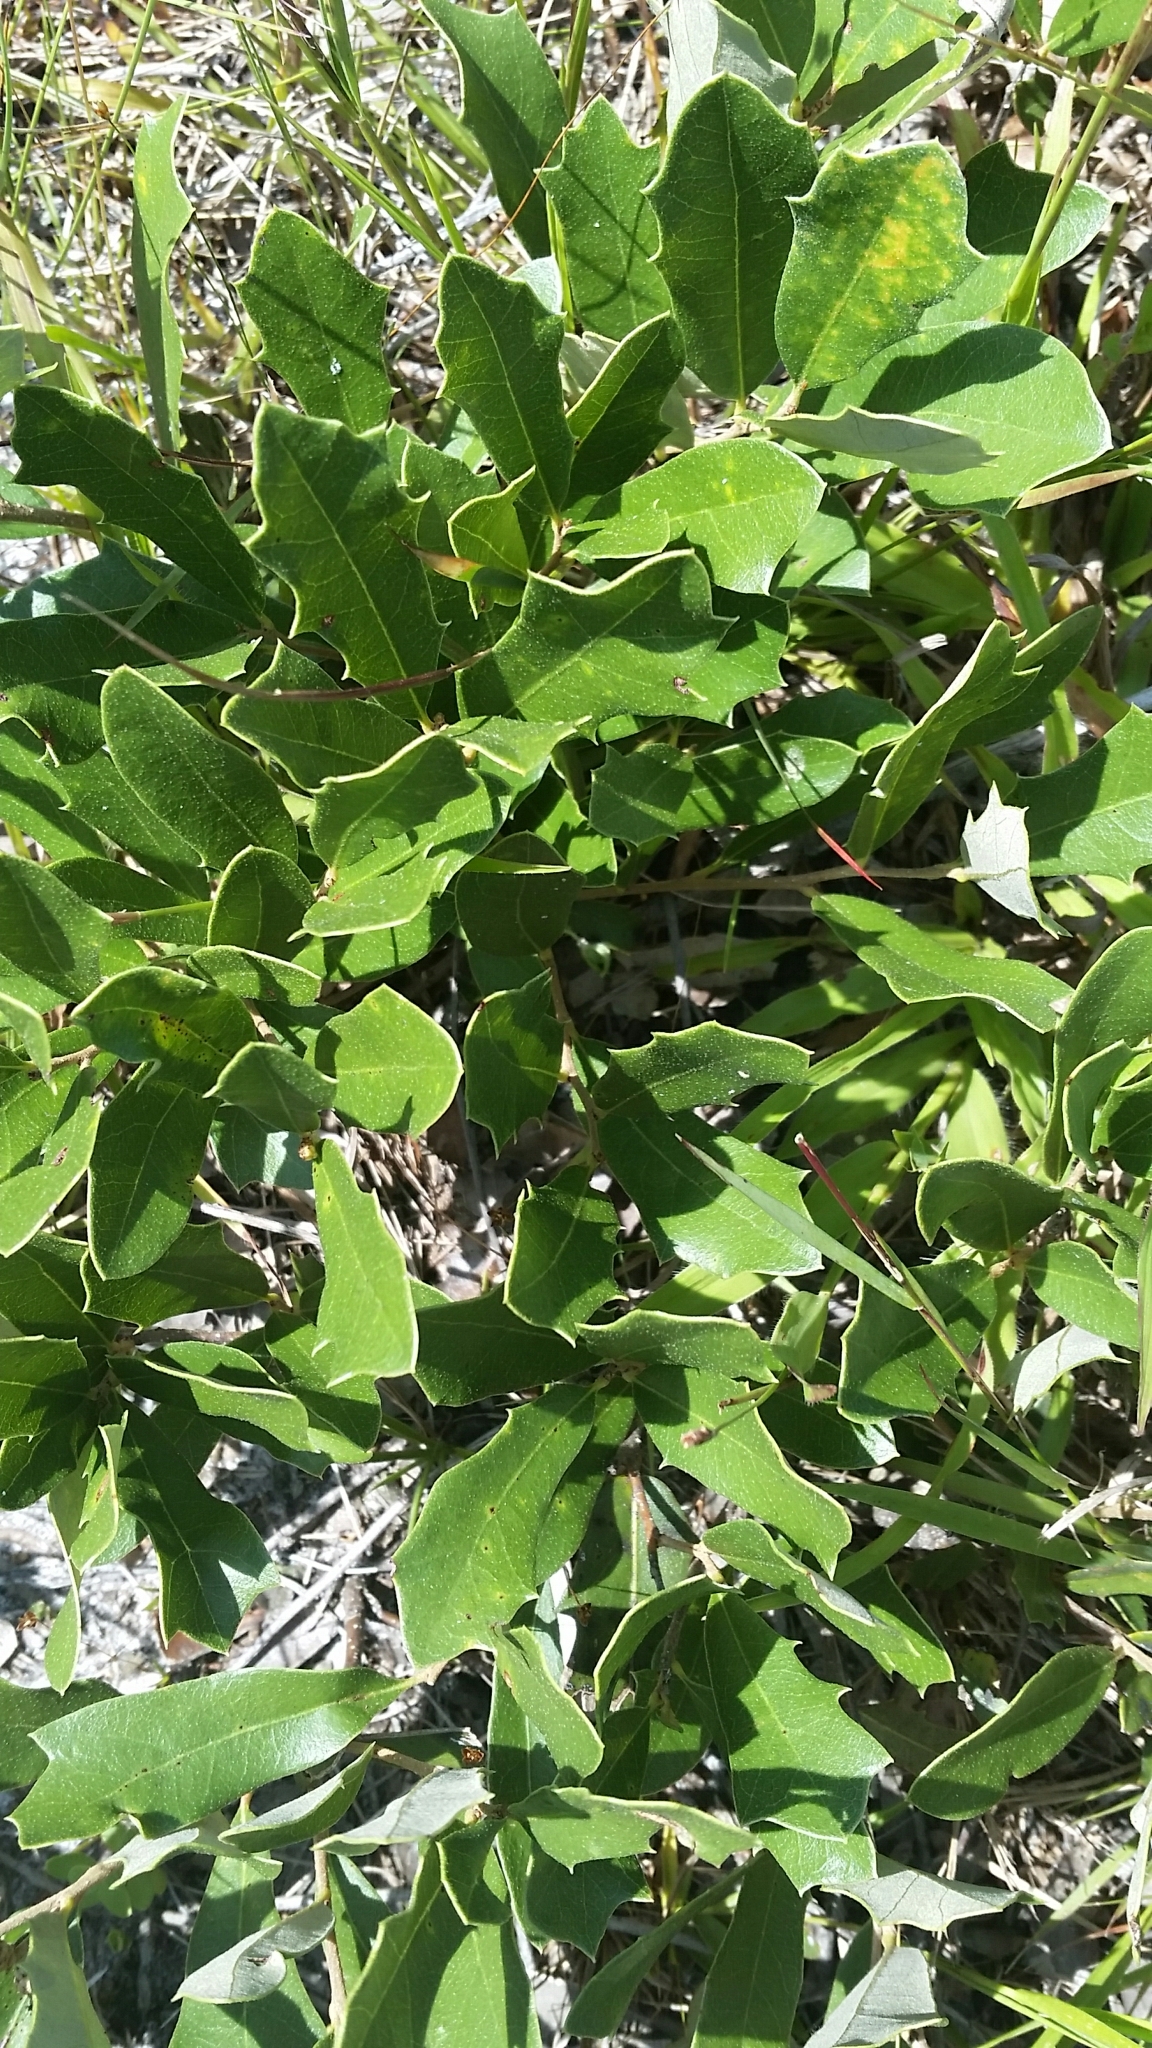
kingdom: Plantae
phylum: Tracheophyta
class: Magnoliopsida
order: Fagales
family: Fagaceae
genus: Quercus
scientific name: Quercus minima
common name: Dwarf live oak
